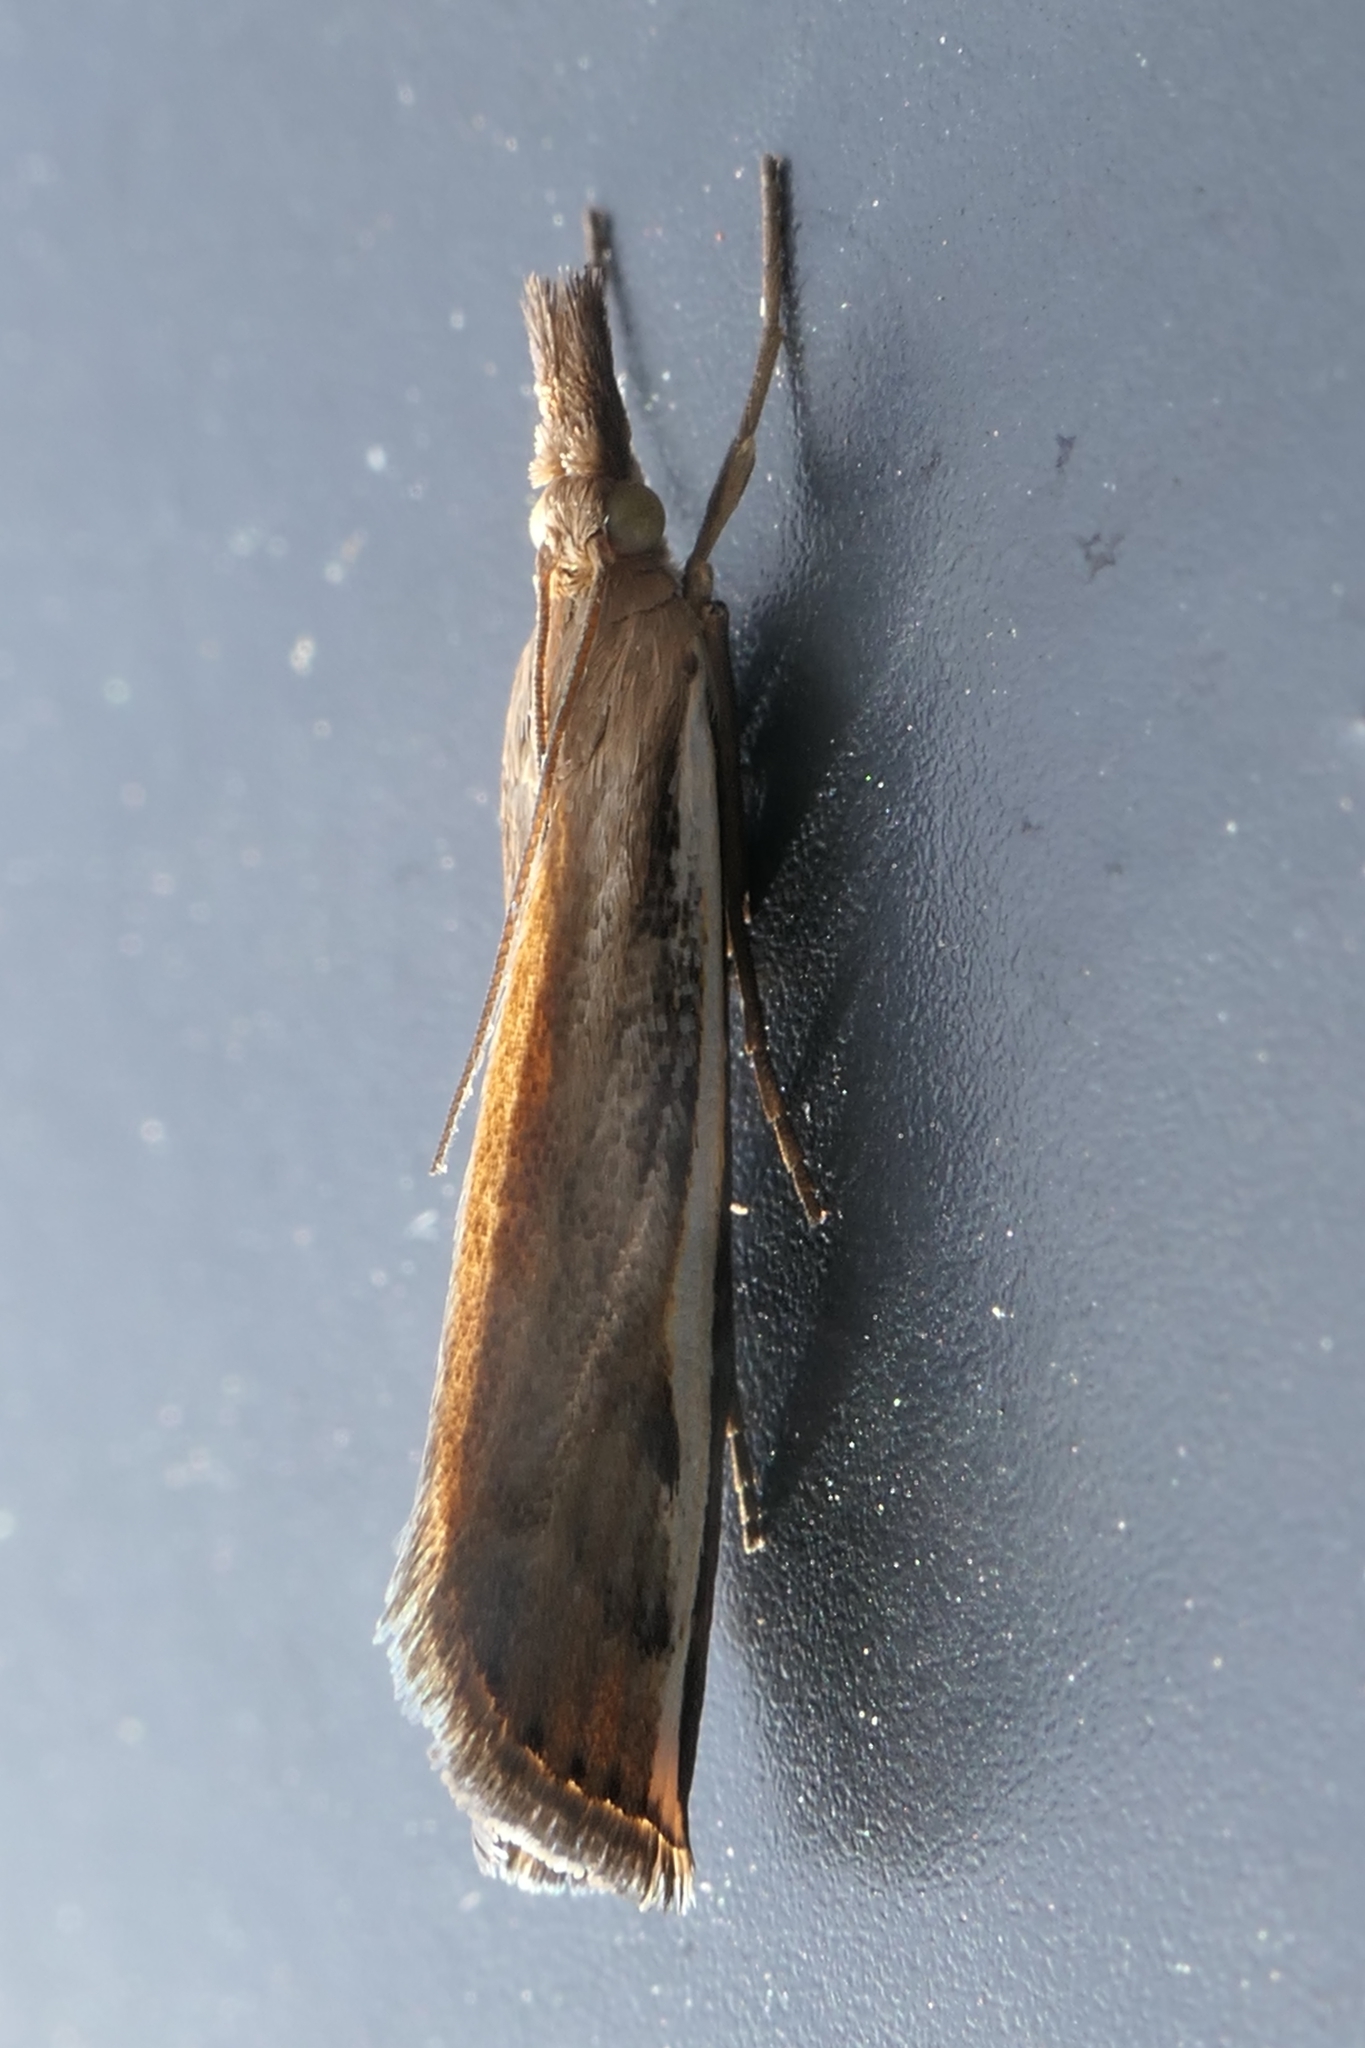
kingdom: Animalia
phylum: Arthropoda
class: Insecta
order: Lepidoptera
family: Crambidae
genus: Orocrambus
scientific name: Orocrambus flexuosellus
